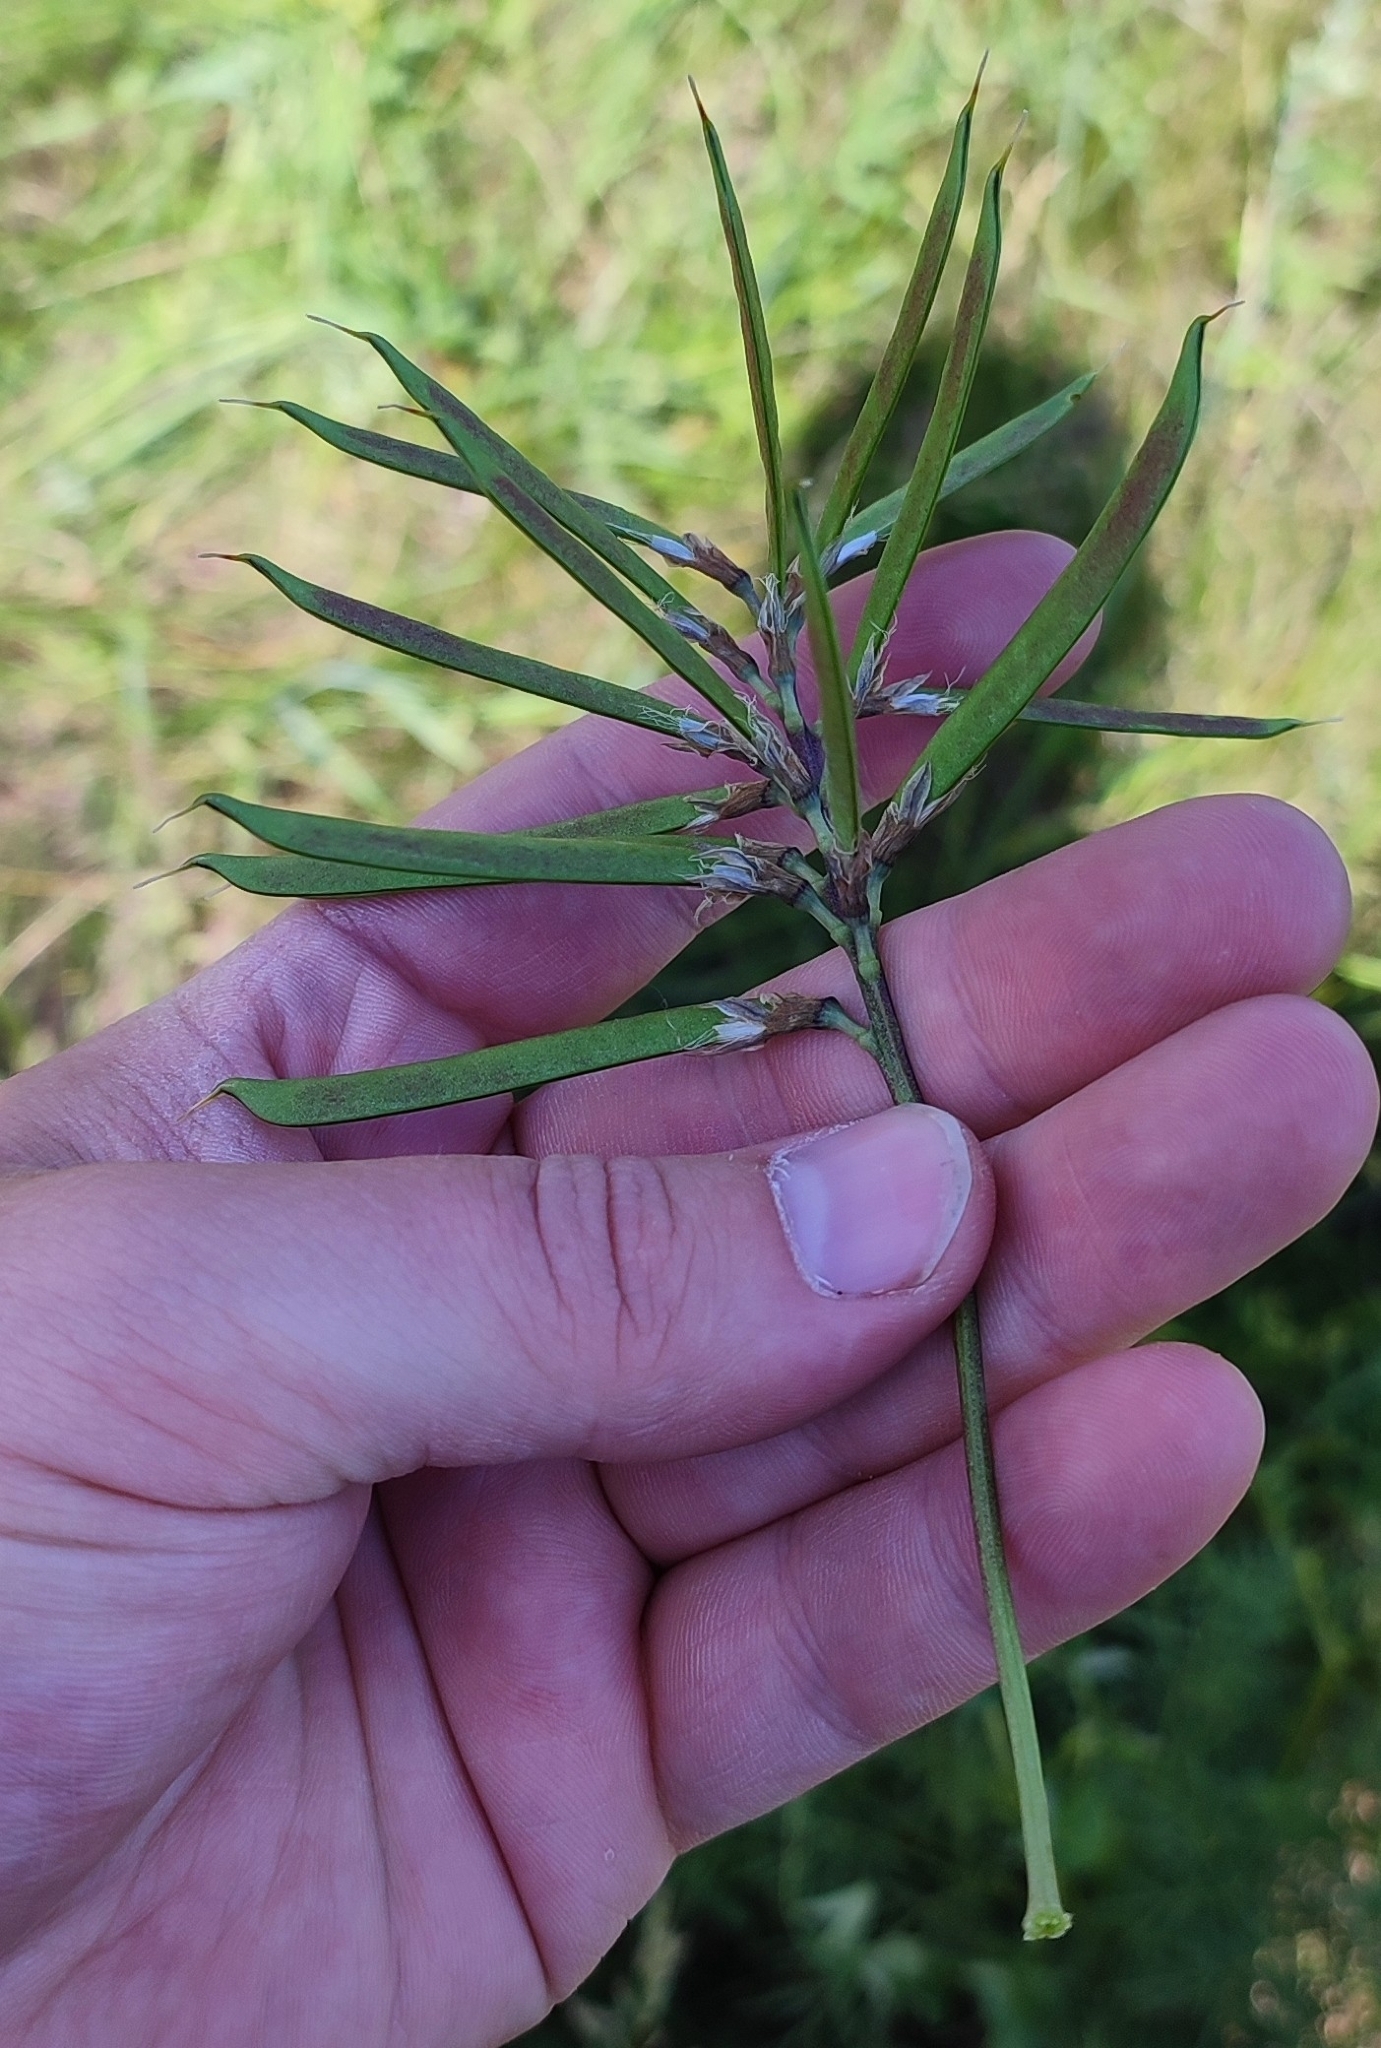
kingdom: Plantae
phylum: Tracheophyta
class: Magnoliopsida
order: Fabales
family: Fabaceae
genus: Lathyrus
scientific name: Lathyrus pisiformis
